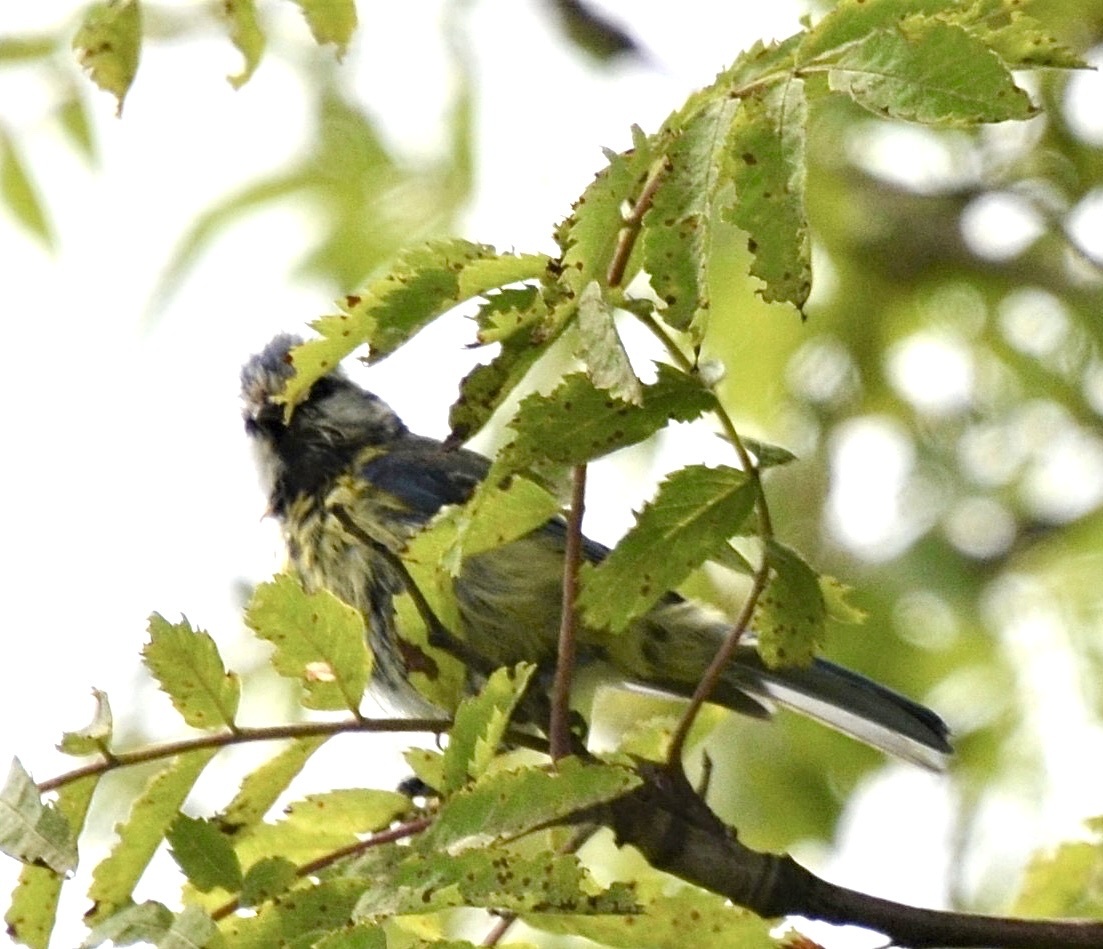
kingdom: Animalia
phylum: Chordata
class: Aves
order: Passeriformes
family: Paridae
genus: Cyanistes
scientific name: Cyanistes caeruleus
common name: Eurasian blue tit
